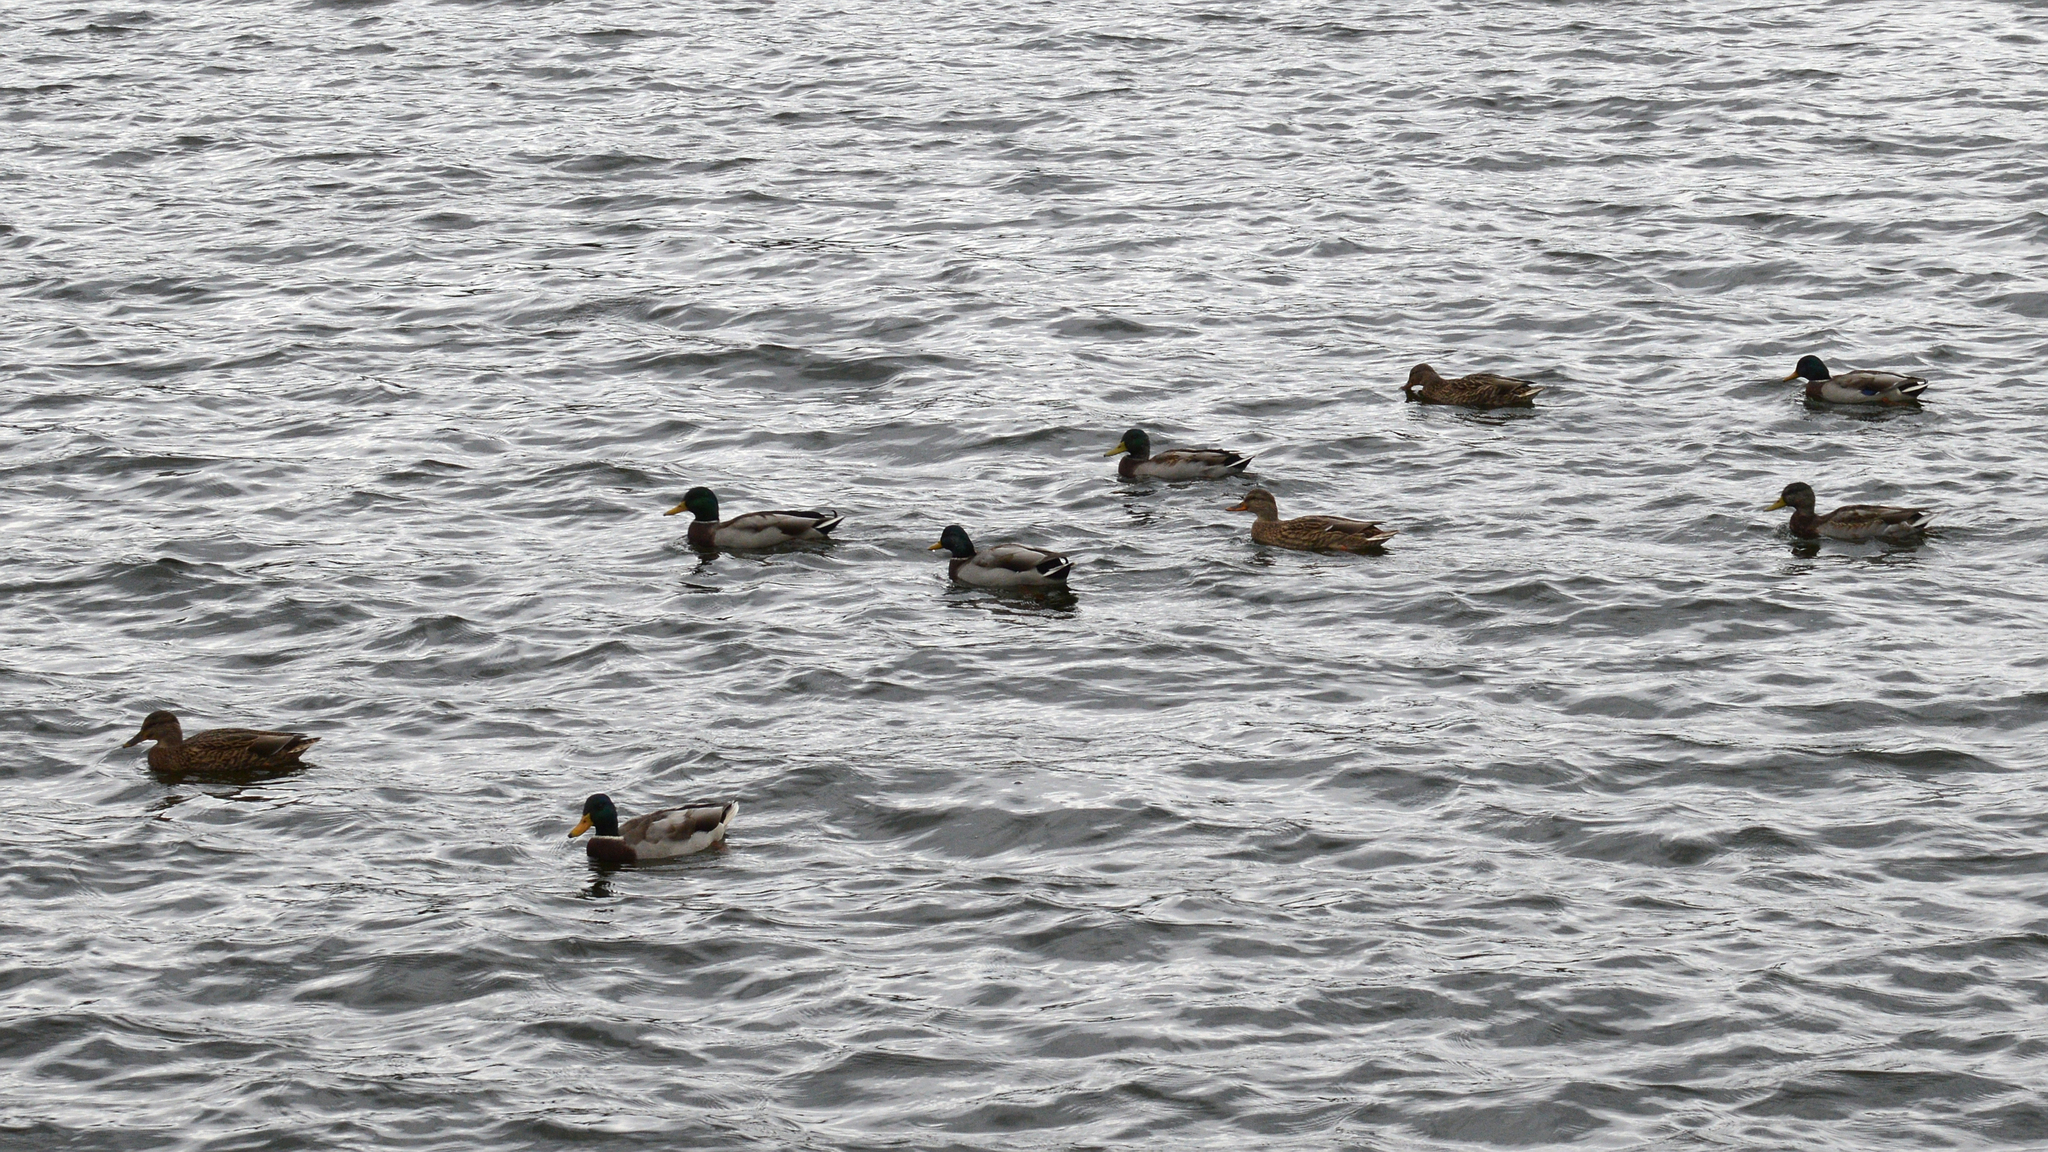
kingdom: Animalia
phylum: Chordata
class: Aves
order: Anseriformes
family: Anatidae
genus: Anas
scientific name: Anas platyrhynchos
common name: Mallard
